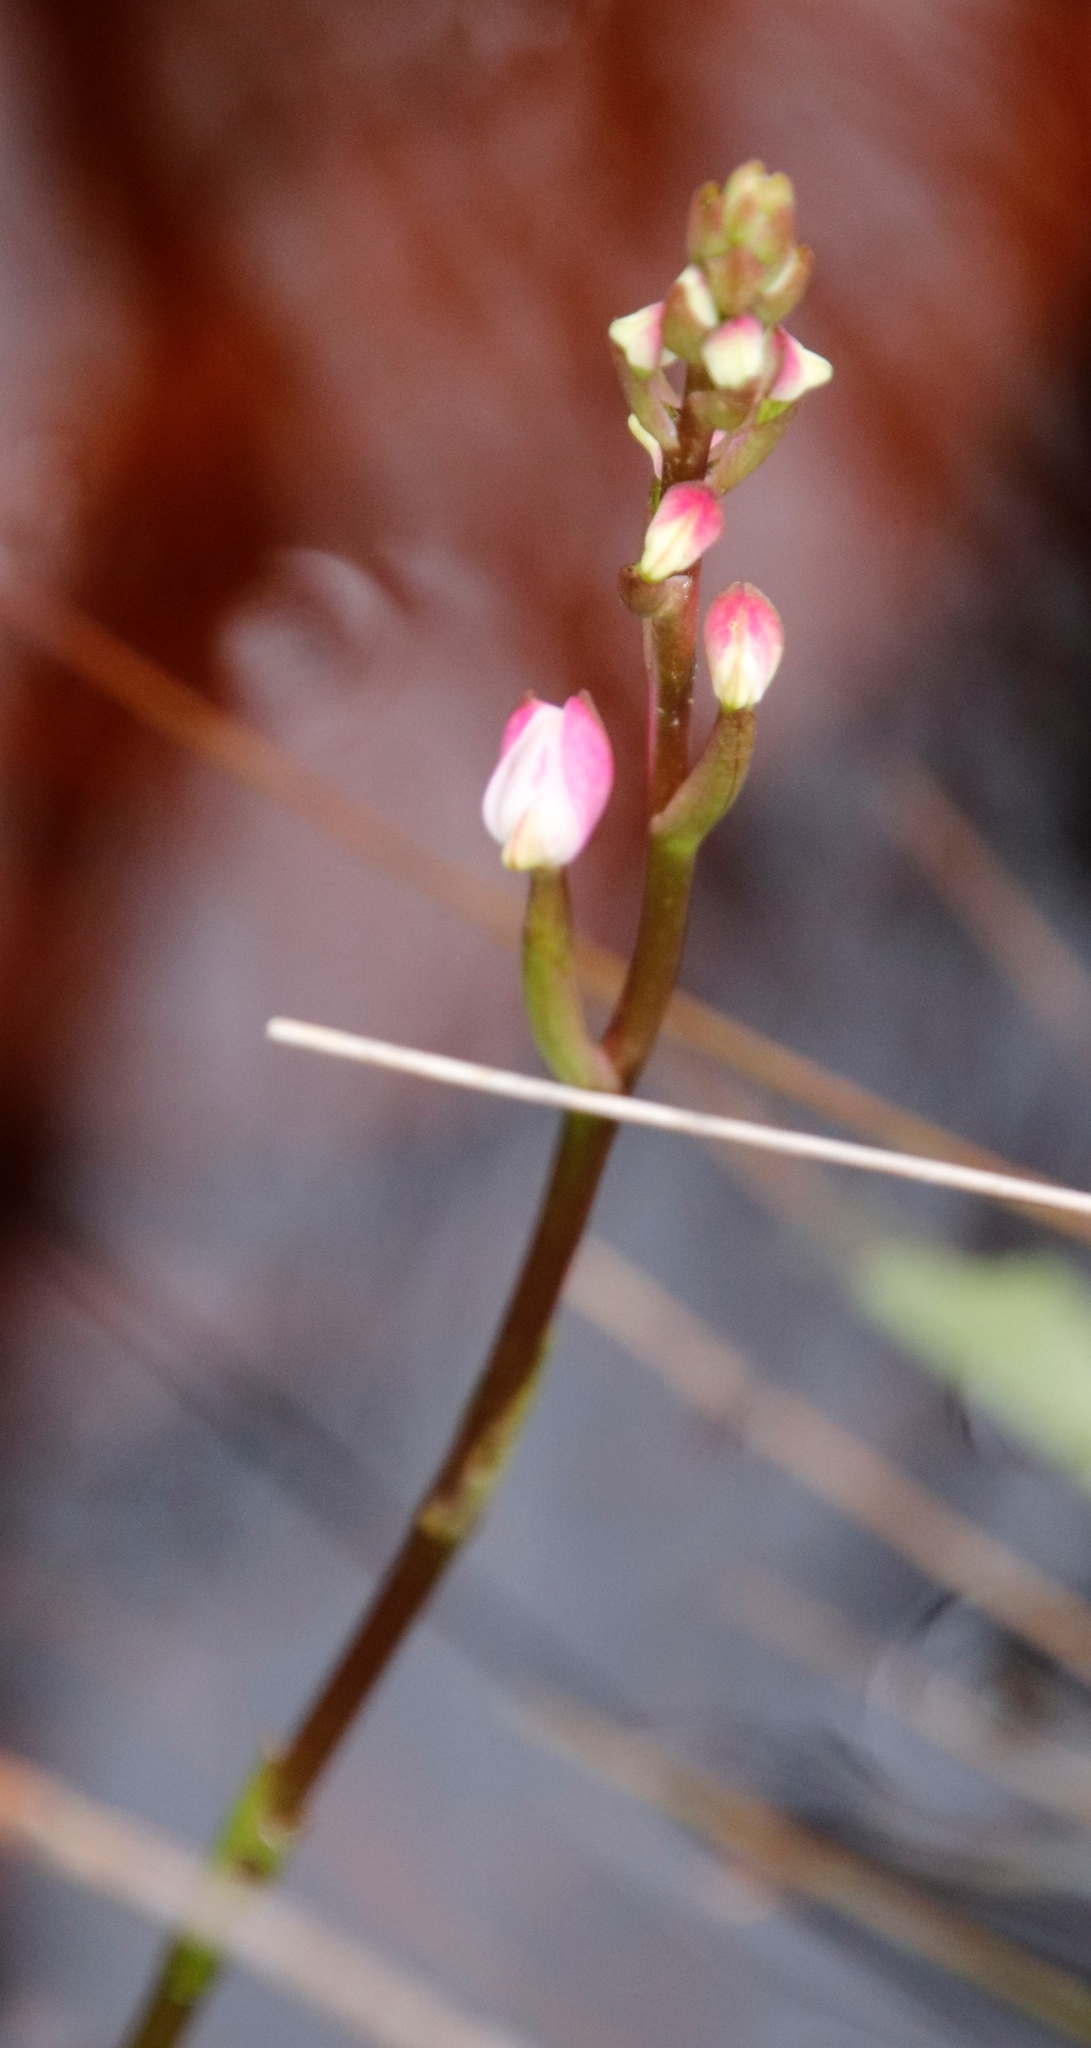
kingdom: Plantae
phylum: Tracheophyta
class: Liliopsida
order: Asparagales
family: Orchidaceae
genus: Disa
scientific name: Disa tripetaloides
